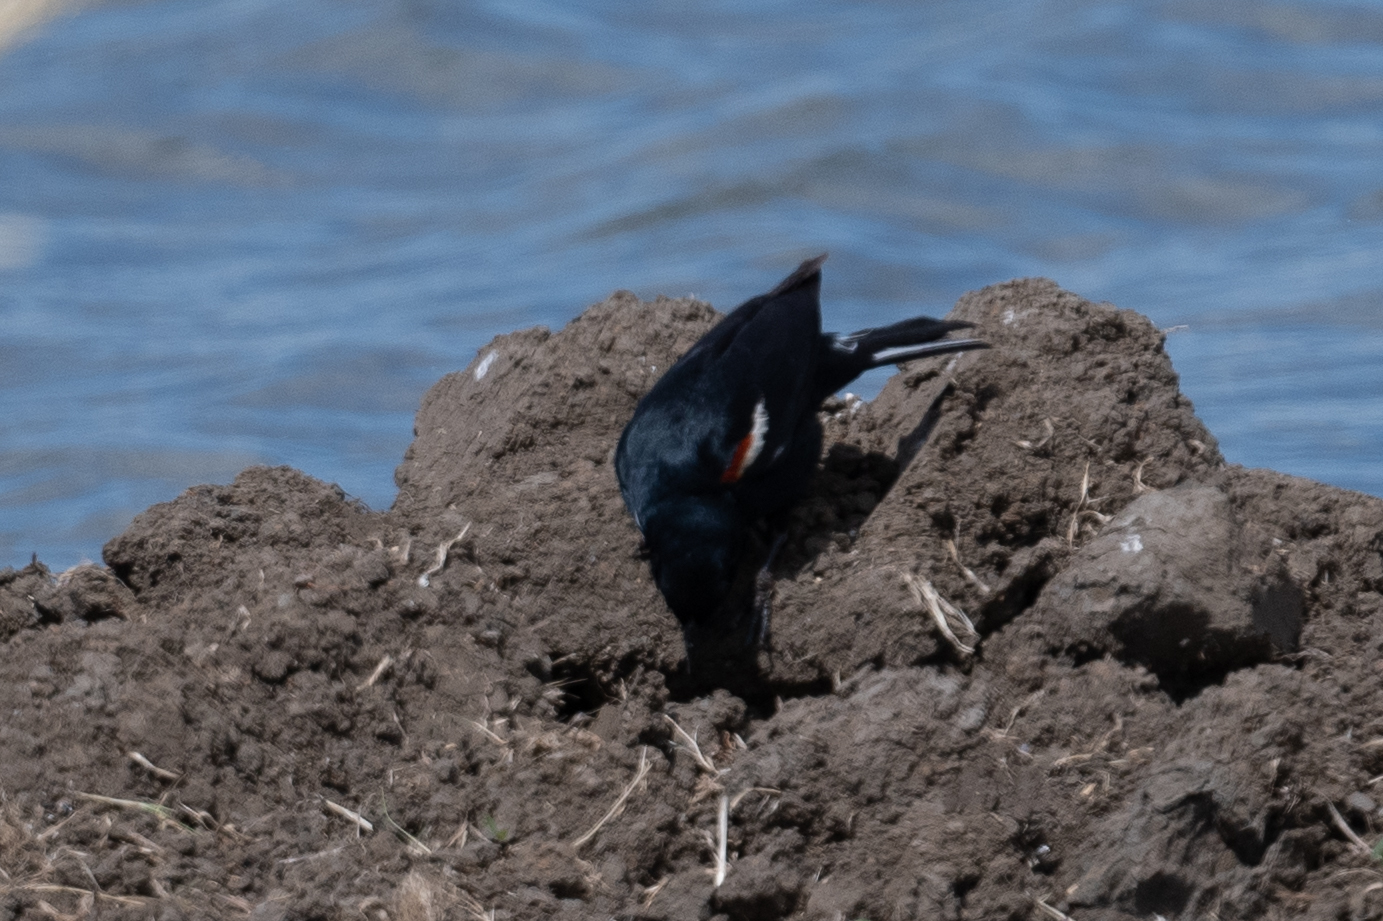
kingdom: Animalia
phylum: Chordata
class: Aves
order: Passeriformes
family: Icteridae
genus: Agelaius
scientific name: Agelaius tricolor
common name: Tricolored blackbird
